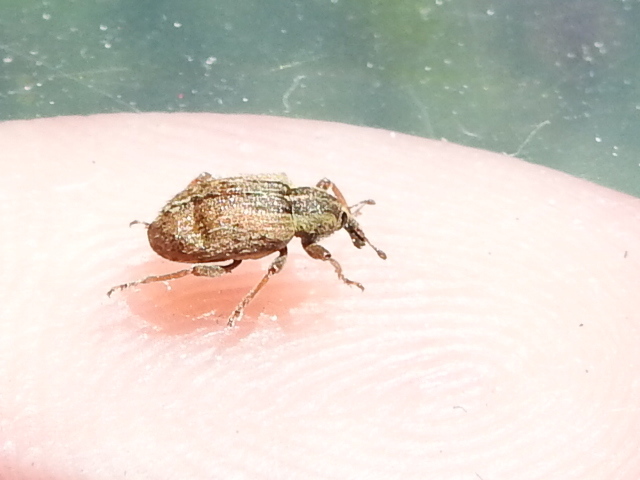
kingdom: Animalia
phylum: Arthropoda
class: Insecta
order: Coleoptera
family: Curculionidae
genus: Hypera
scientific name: Hypera postica
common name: Weevil
